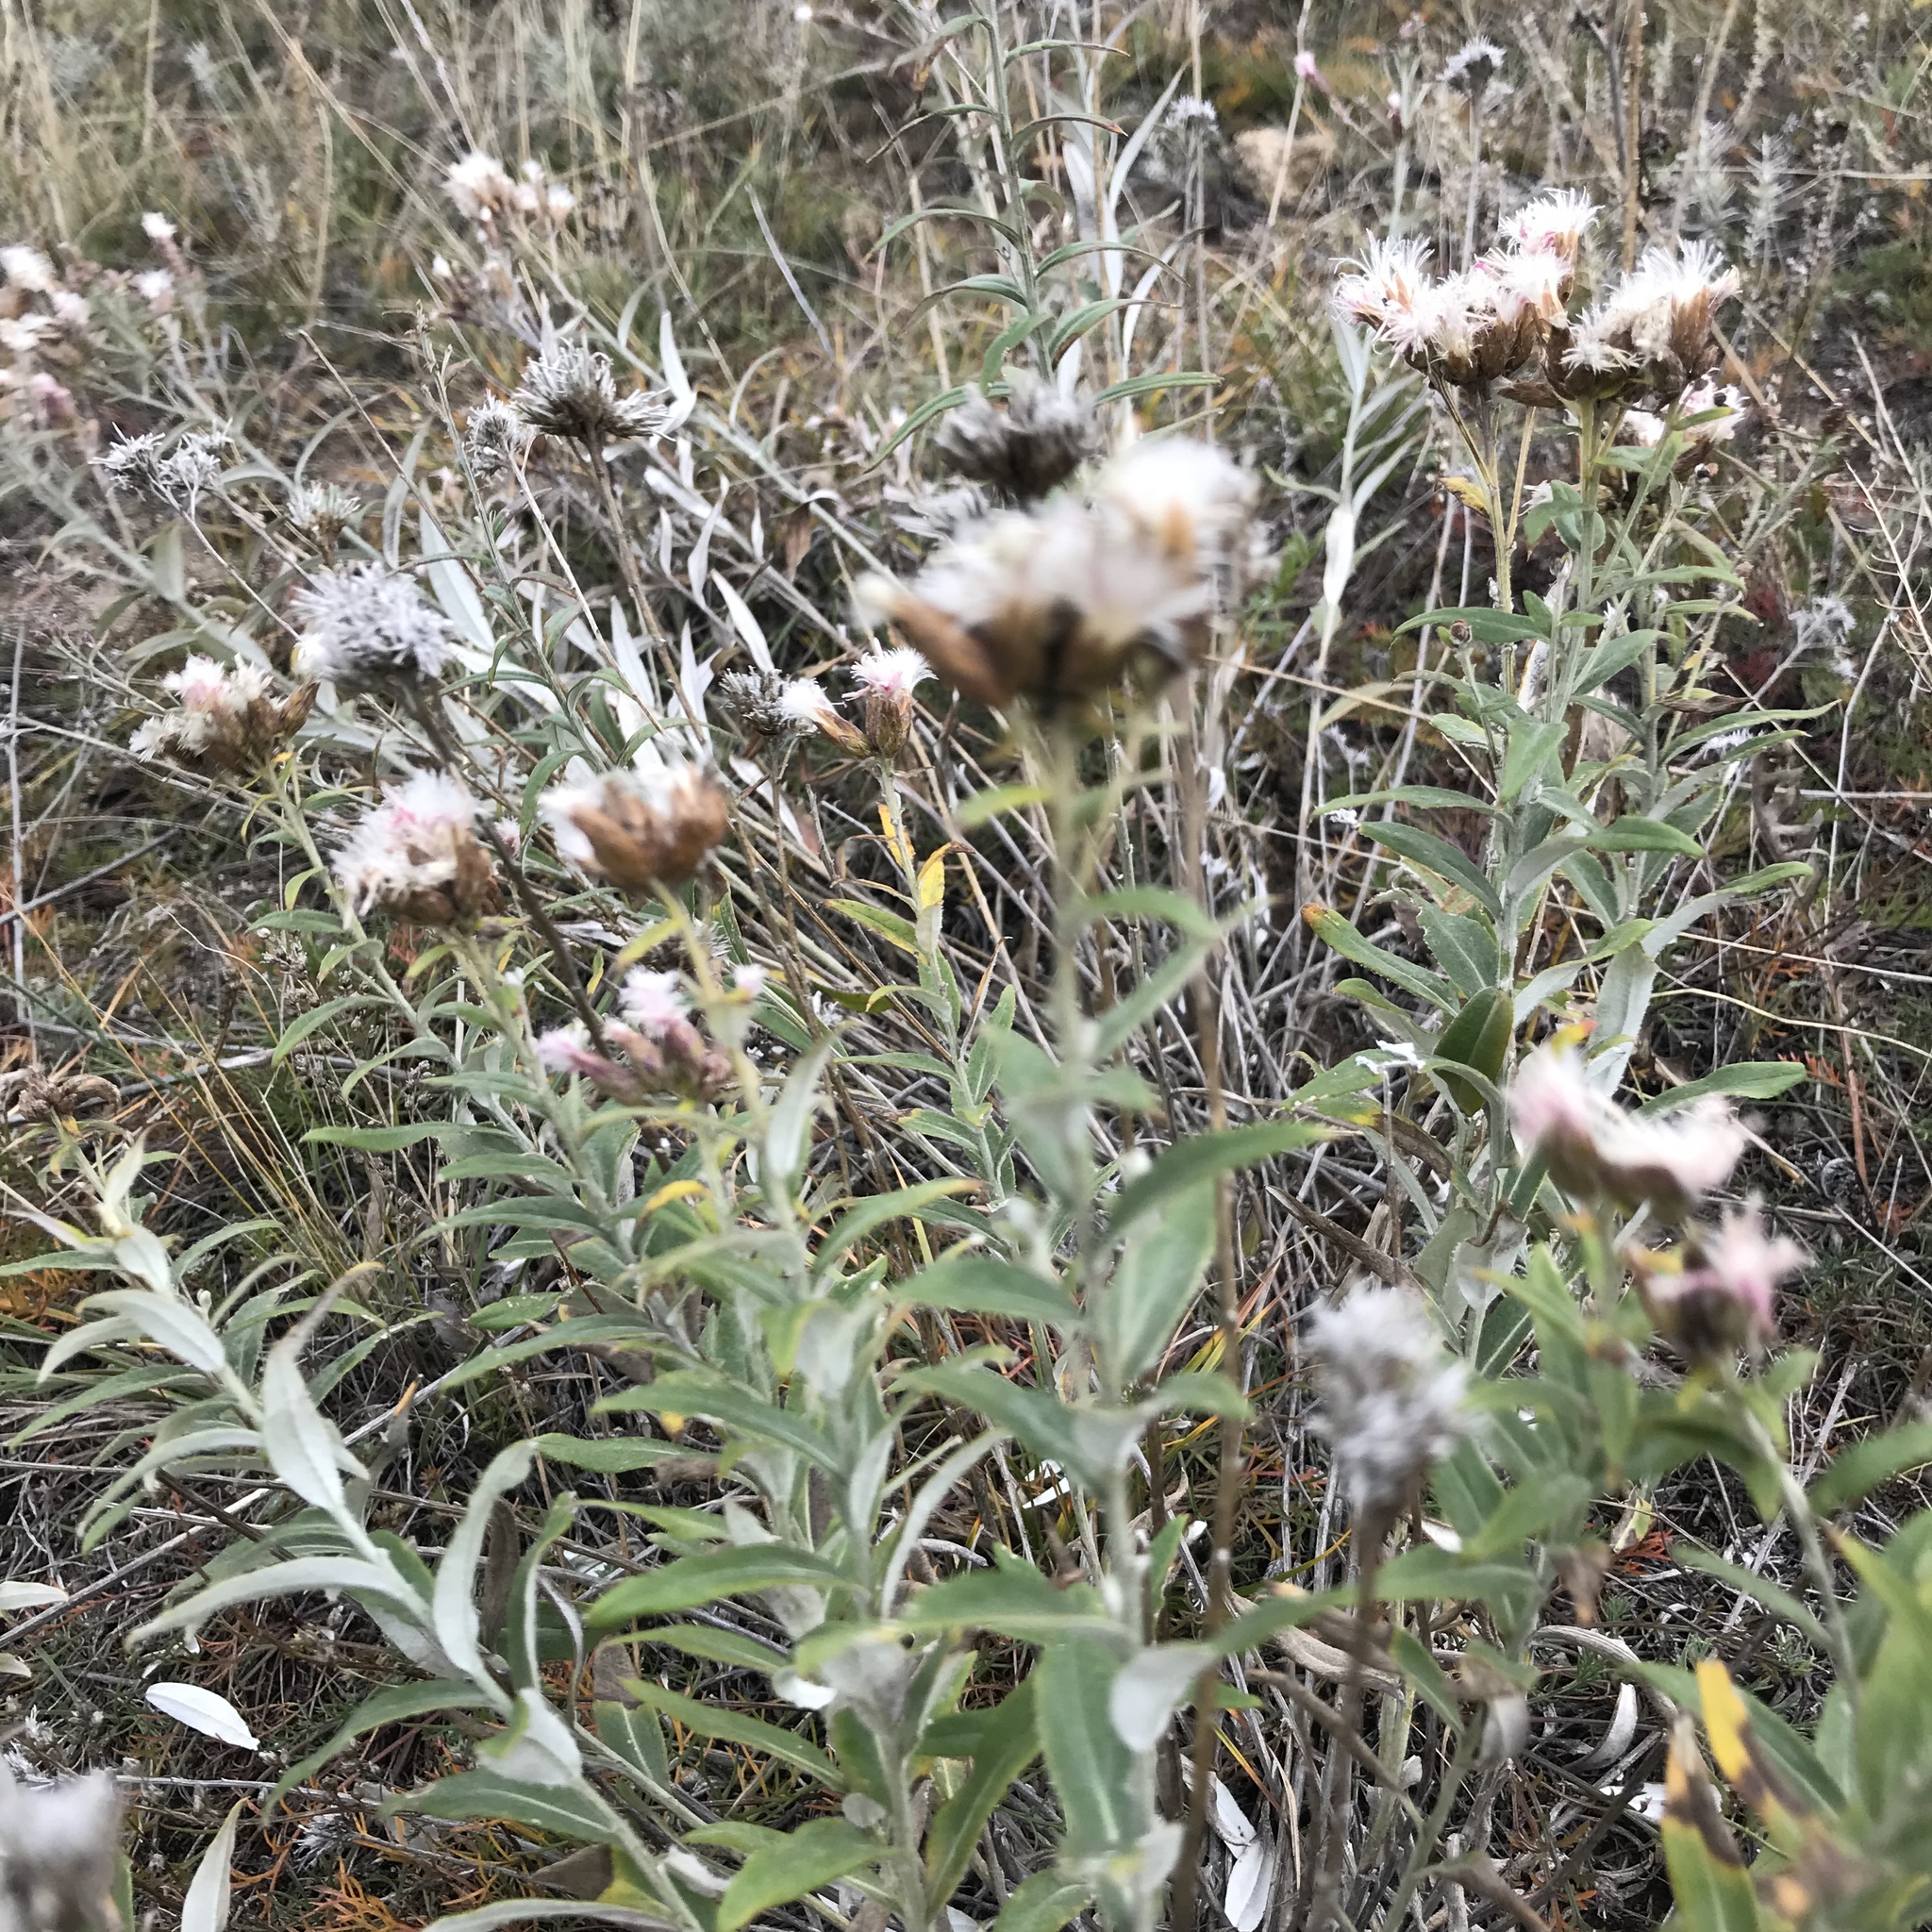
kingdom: Plantae
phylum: Tracheophyta
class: Magnoliopsida
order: Asterales
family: Asteraceae
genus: Saussurea
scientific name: Saussurea salicifolia
